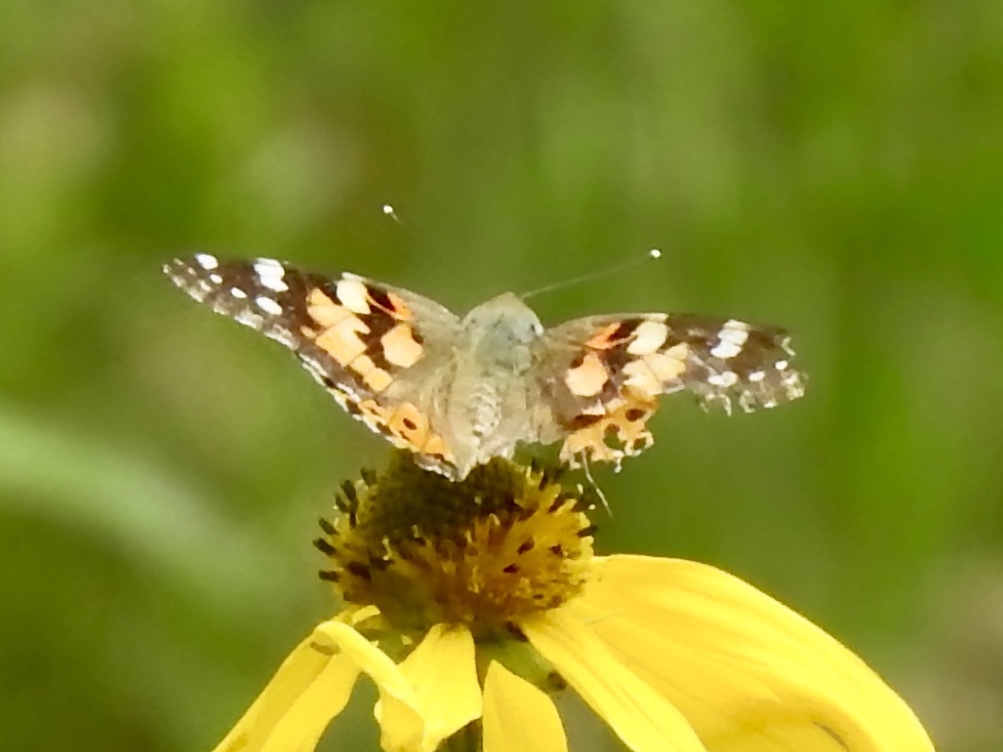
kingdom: Animalia
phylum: Arthropoda
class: Insecta
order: Lepidoptera
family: Nymphalidae
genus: Vanessa
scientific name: Vanessa cardui
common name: Painted lady
